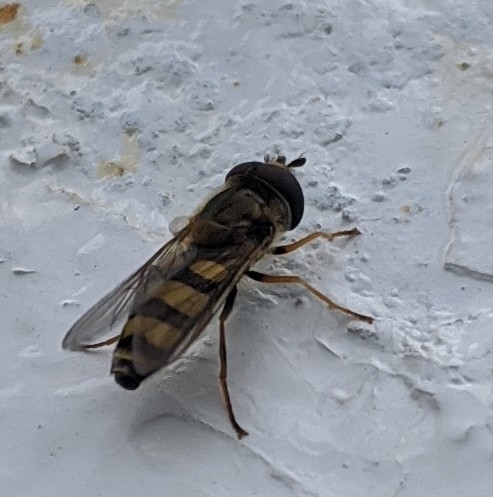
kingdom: Animalia
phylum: Arthropoda
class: Insecta
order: Diptera
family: Syrphidae
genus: Eupeodes
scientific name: Eupeodes
